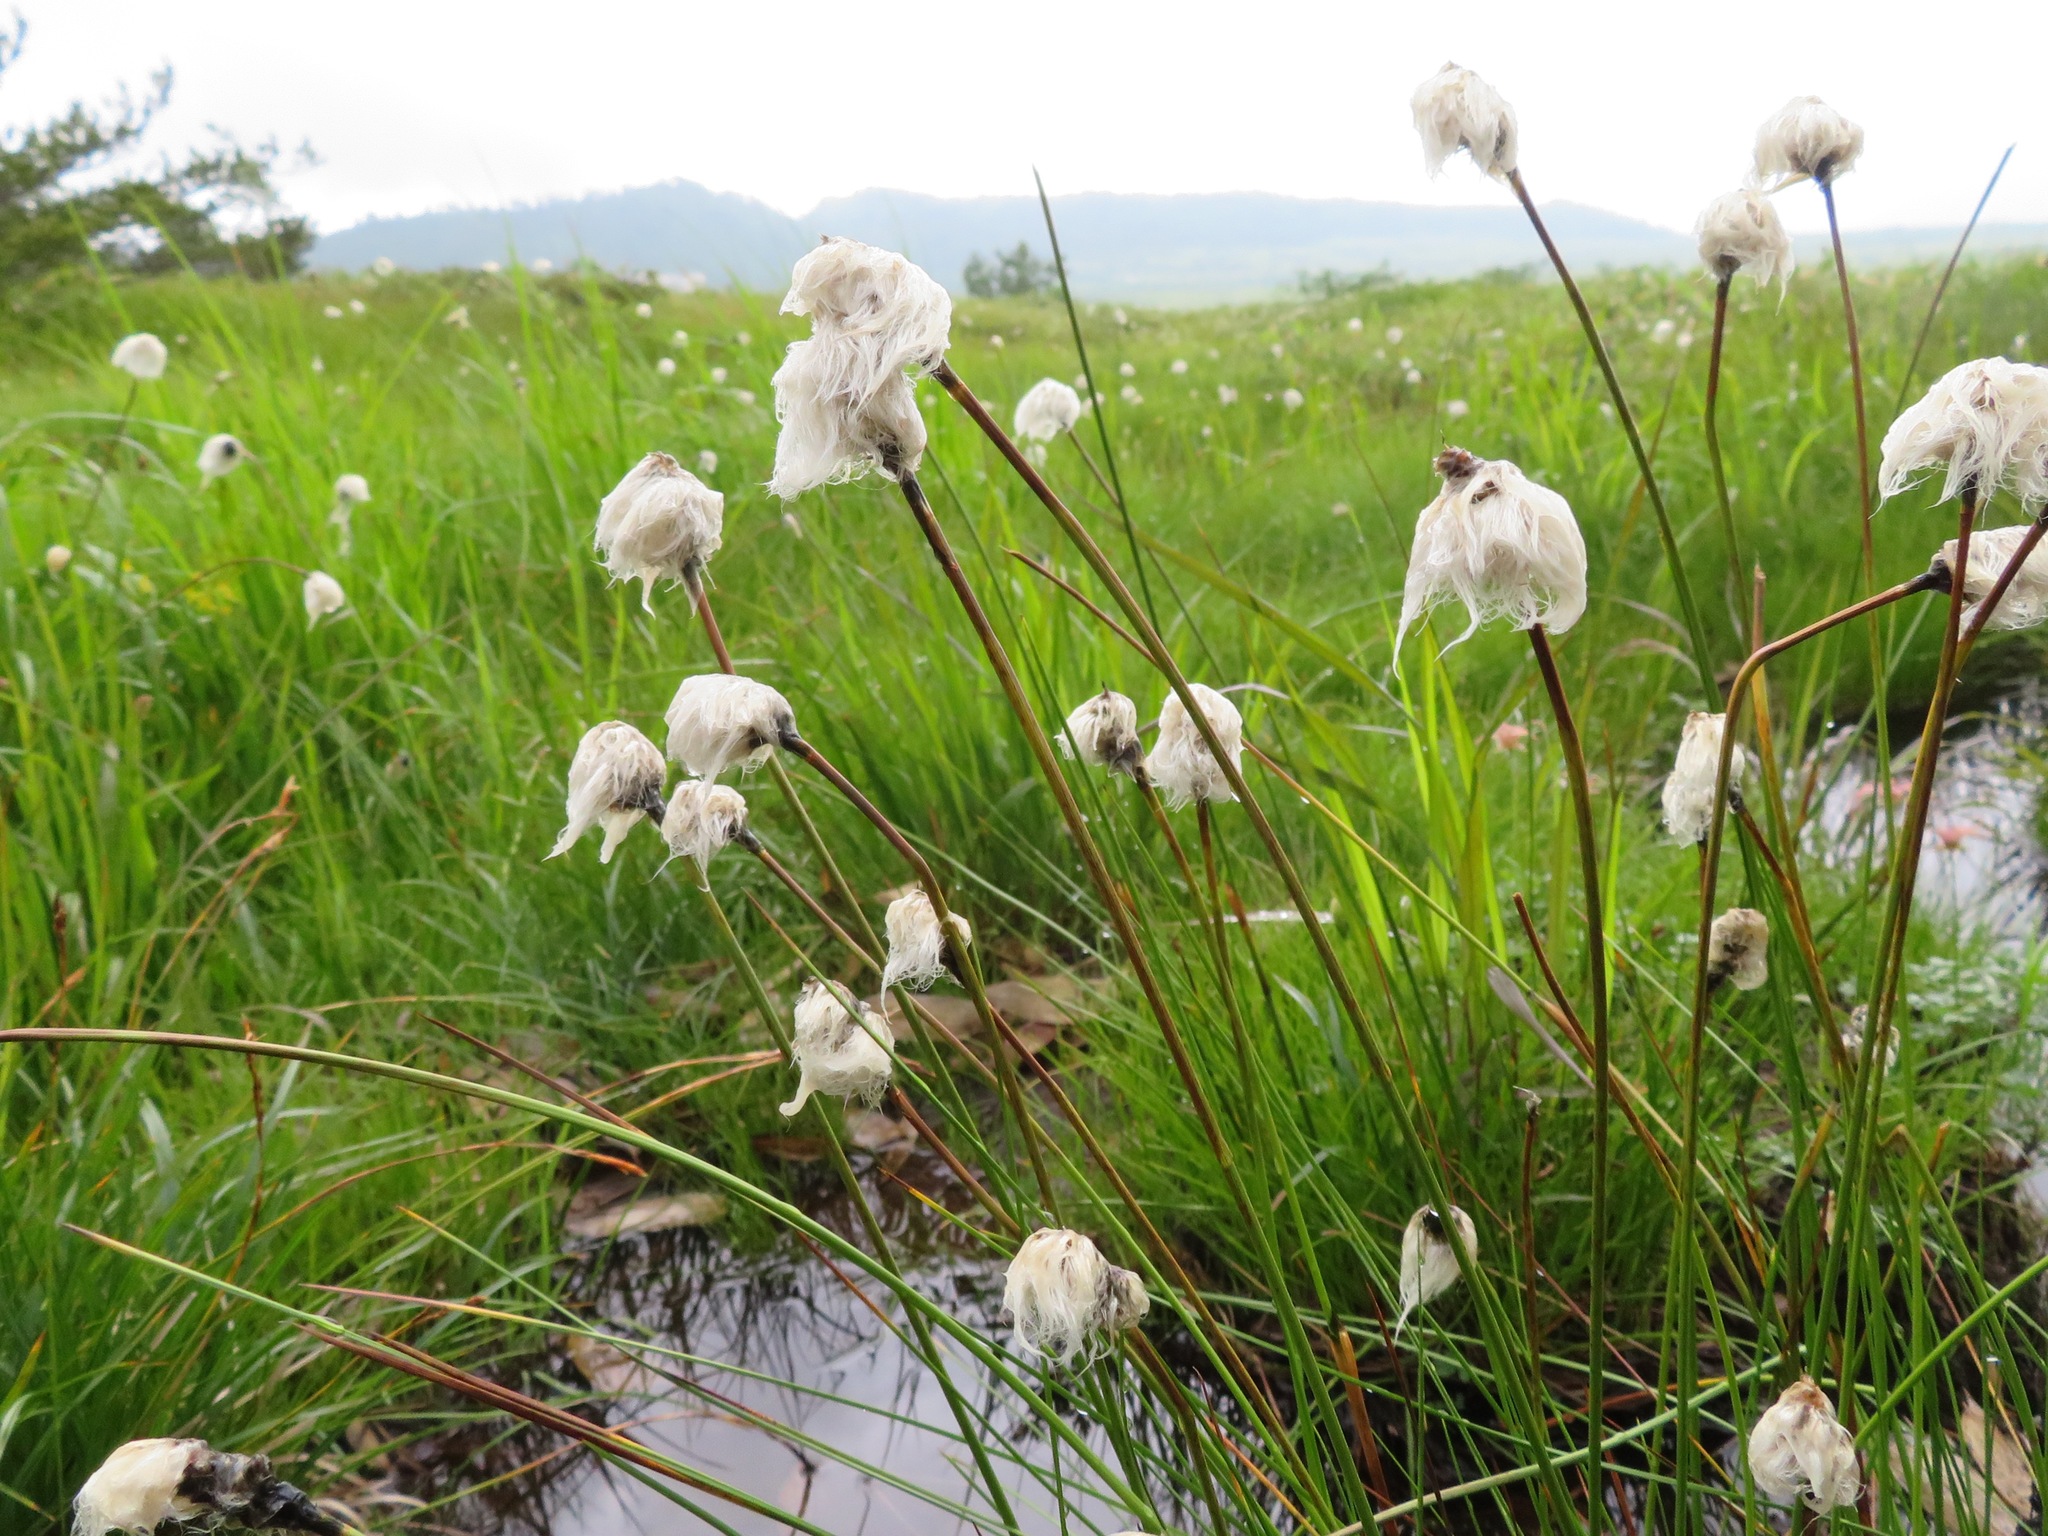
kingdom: Plantae
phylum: Tracheophyta
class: Liliopsida
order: Poales
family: Cyperaceae
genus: Eriophorum
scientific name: Eriophorum vaginatum
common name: Hare's-tail cottongrass
